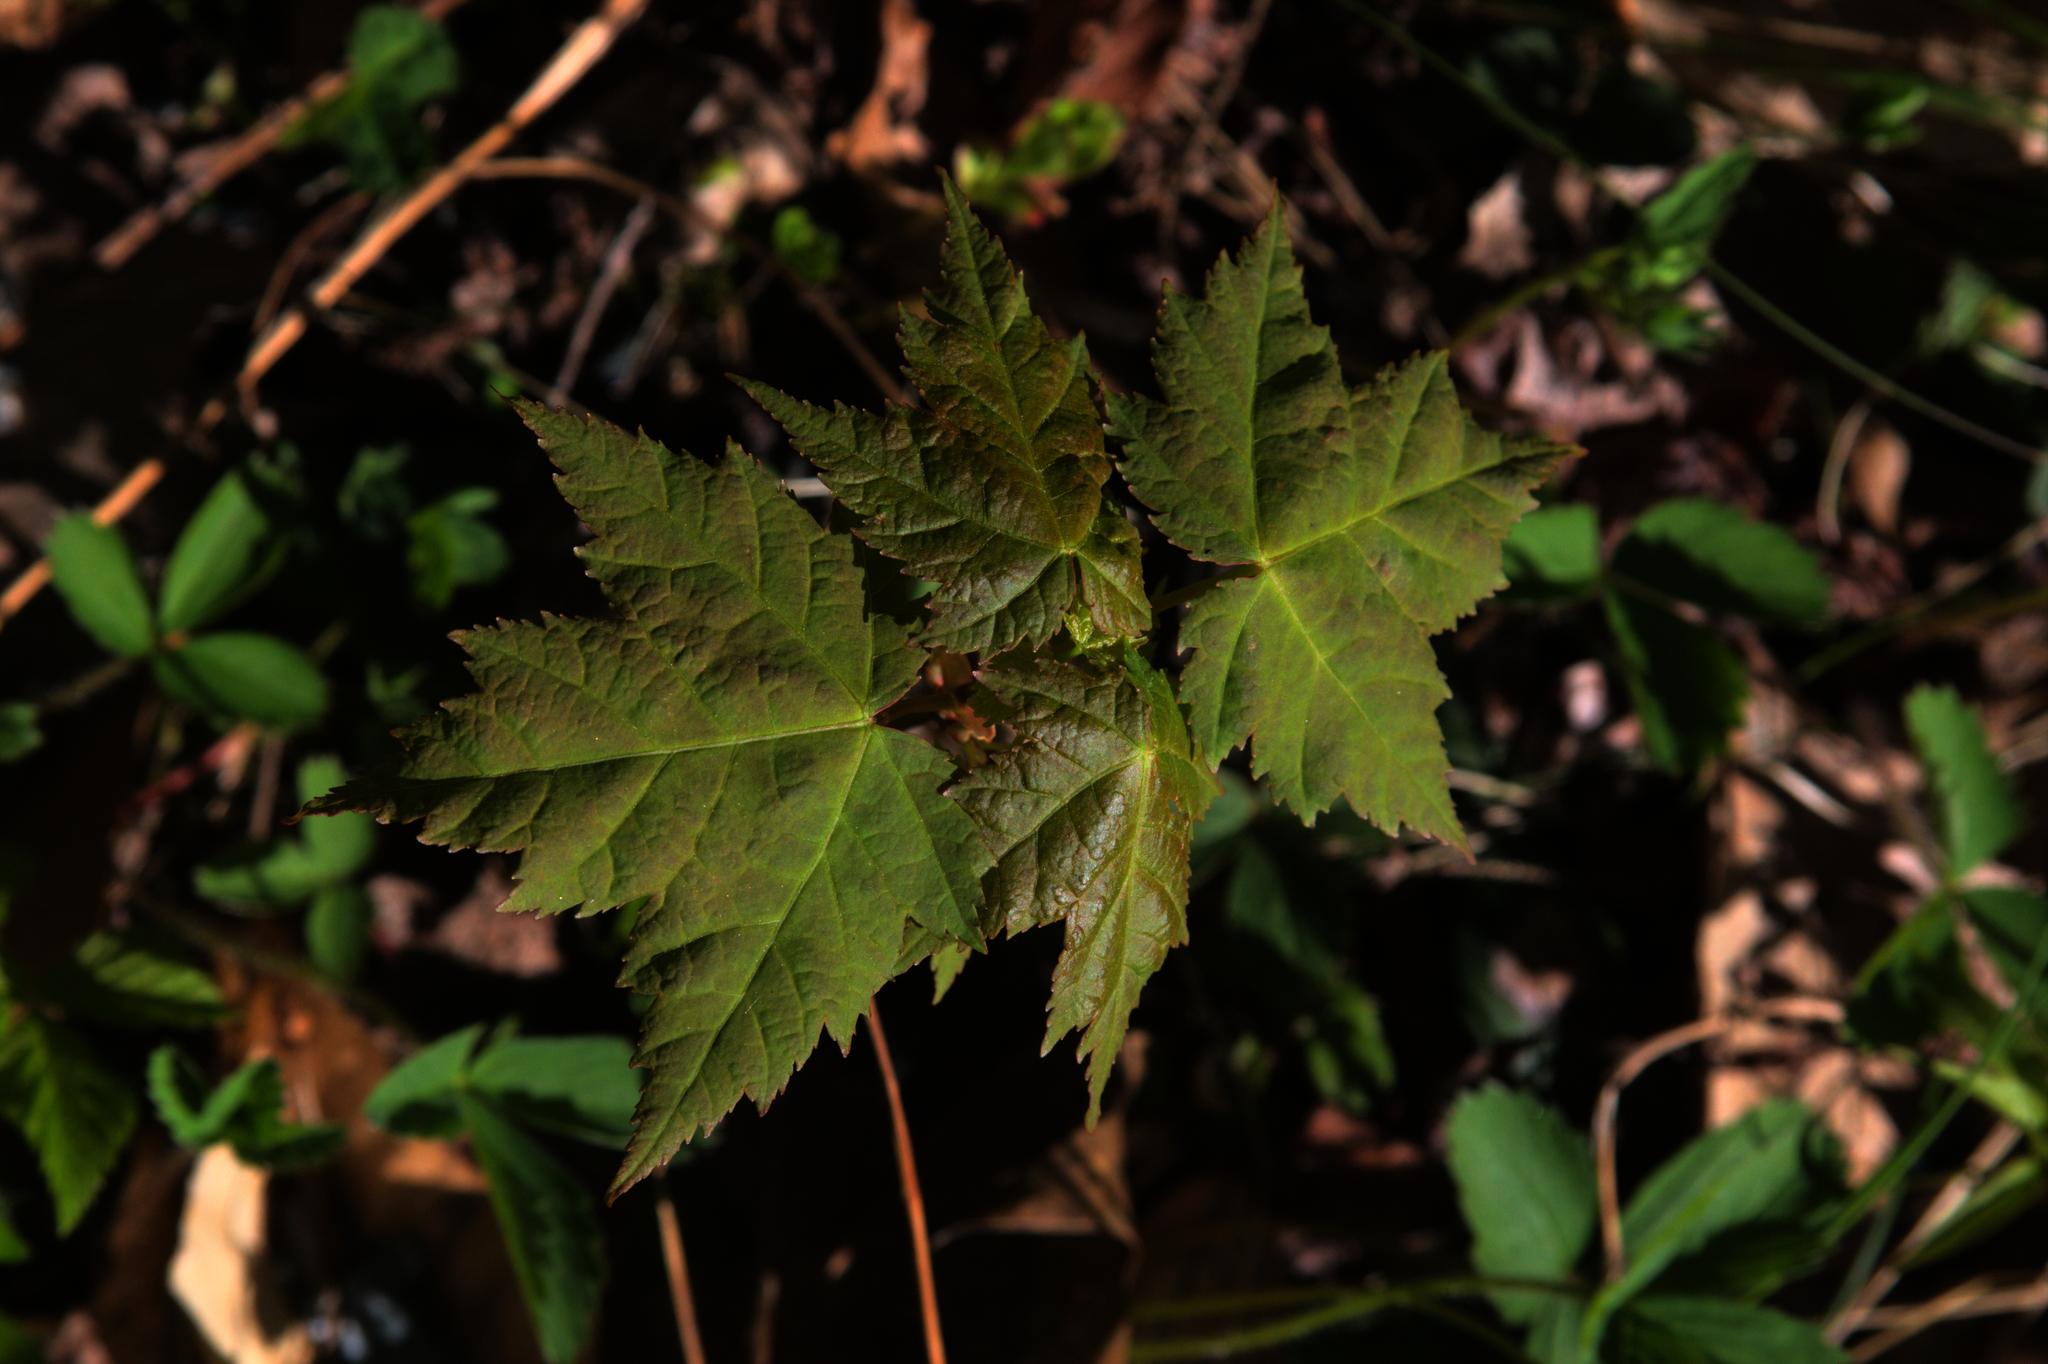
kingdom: Plantae
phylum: Tracheophyta
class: Magnoliopsida
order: Sapindales
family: Sapindaceae
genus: Acer
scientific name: Acer rubrum
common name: Red maple
